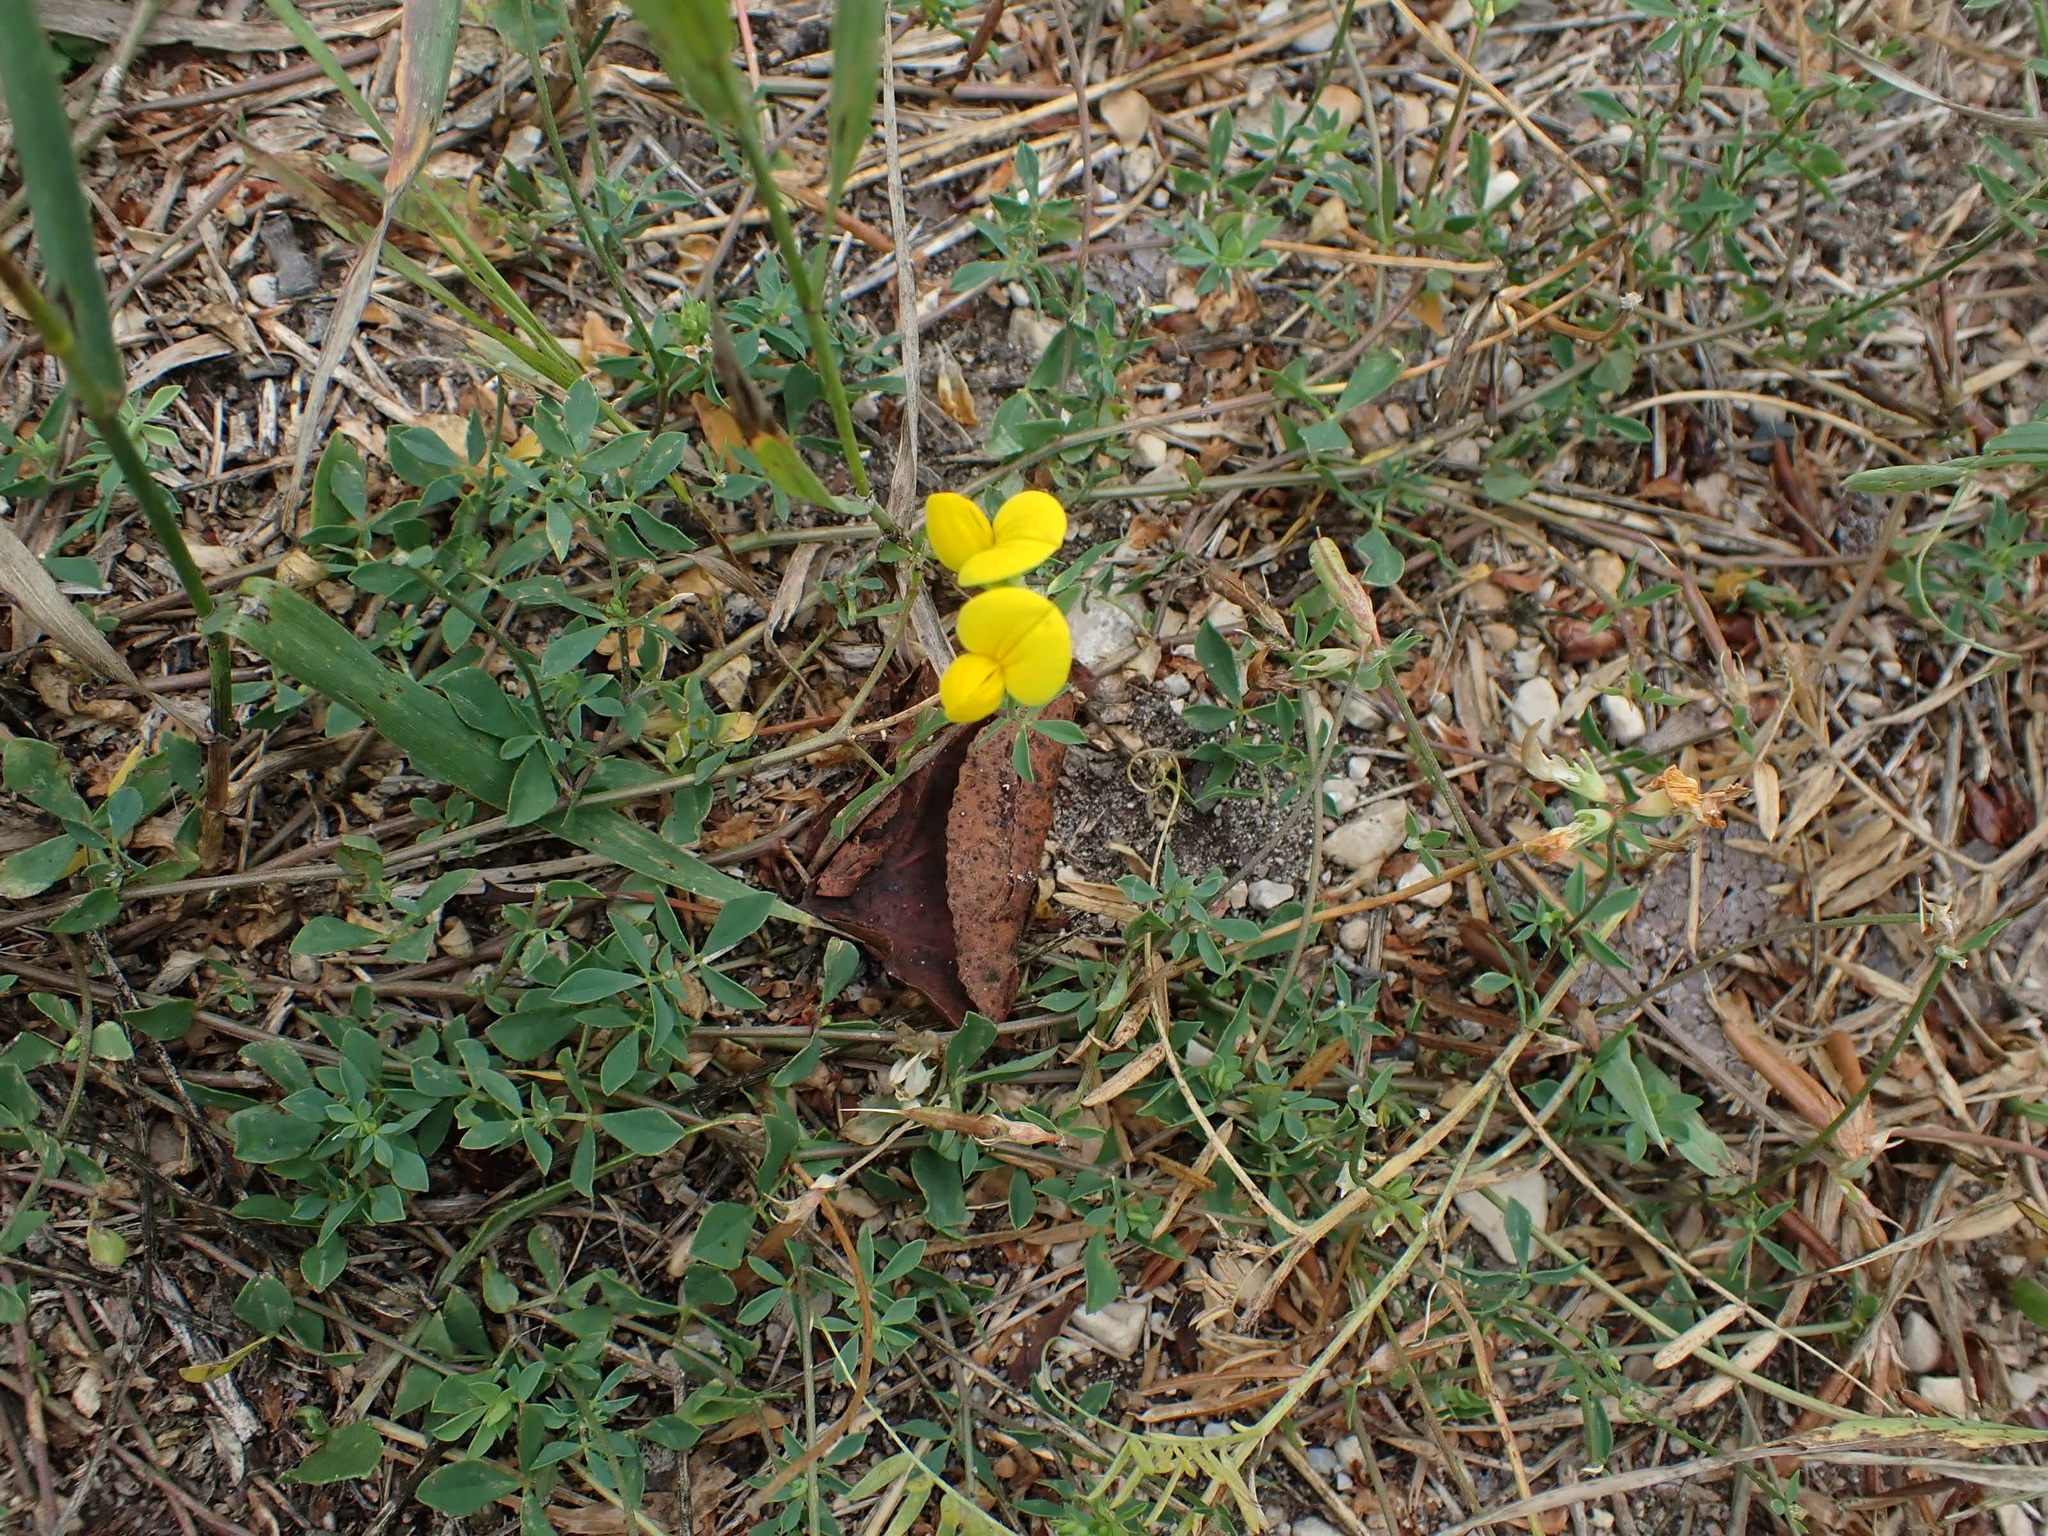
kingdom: Plantae
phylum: Tracheophyta
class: Magnoliopsida
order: Fabales
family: Fabaceae
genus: Lotus
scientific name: Lotus corniculatus
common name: Common bird's-foot-trefoil
